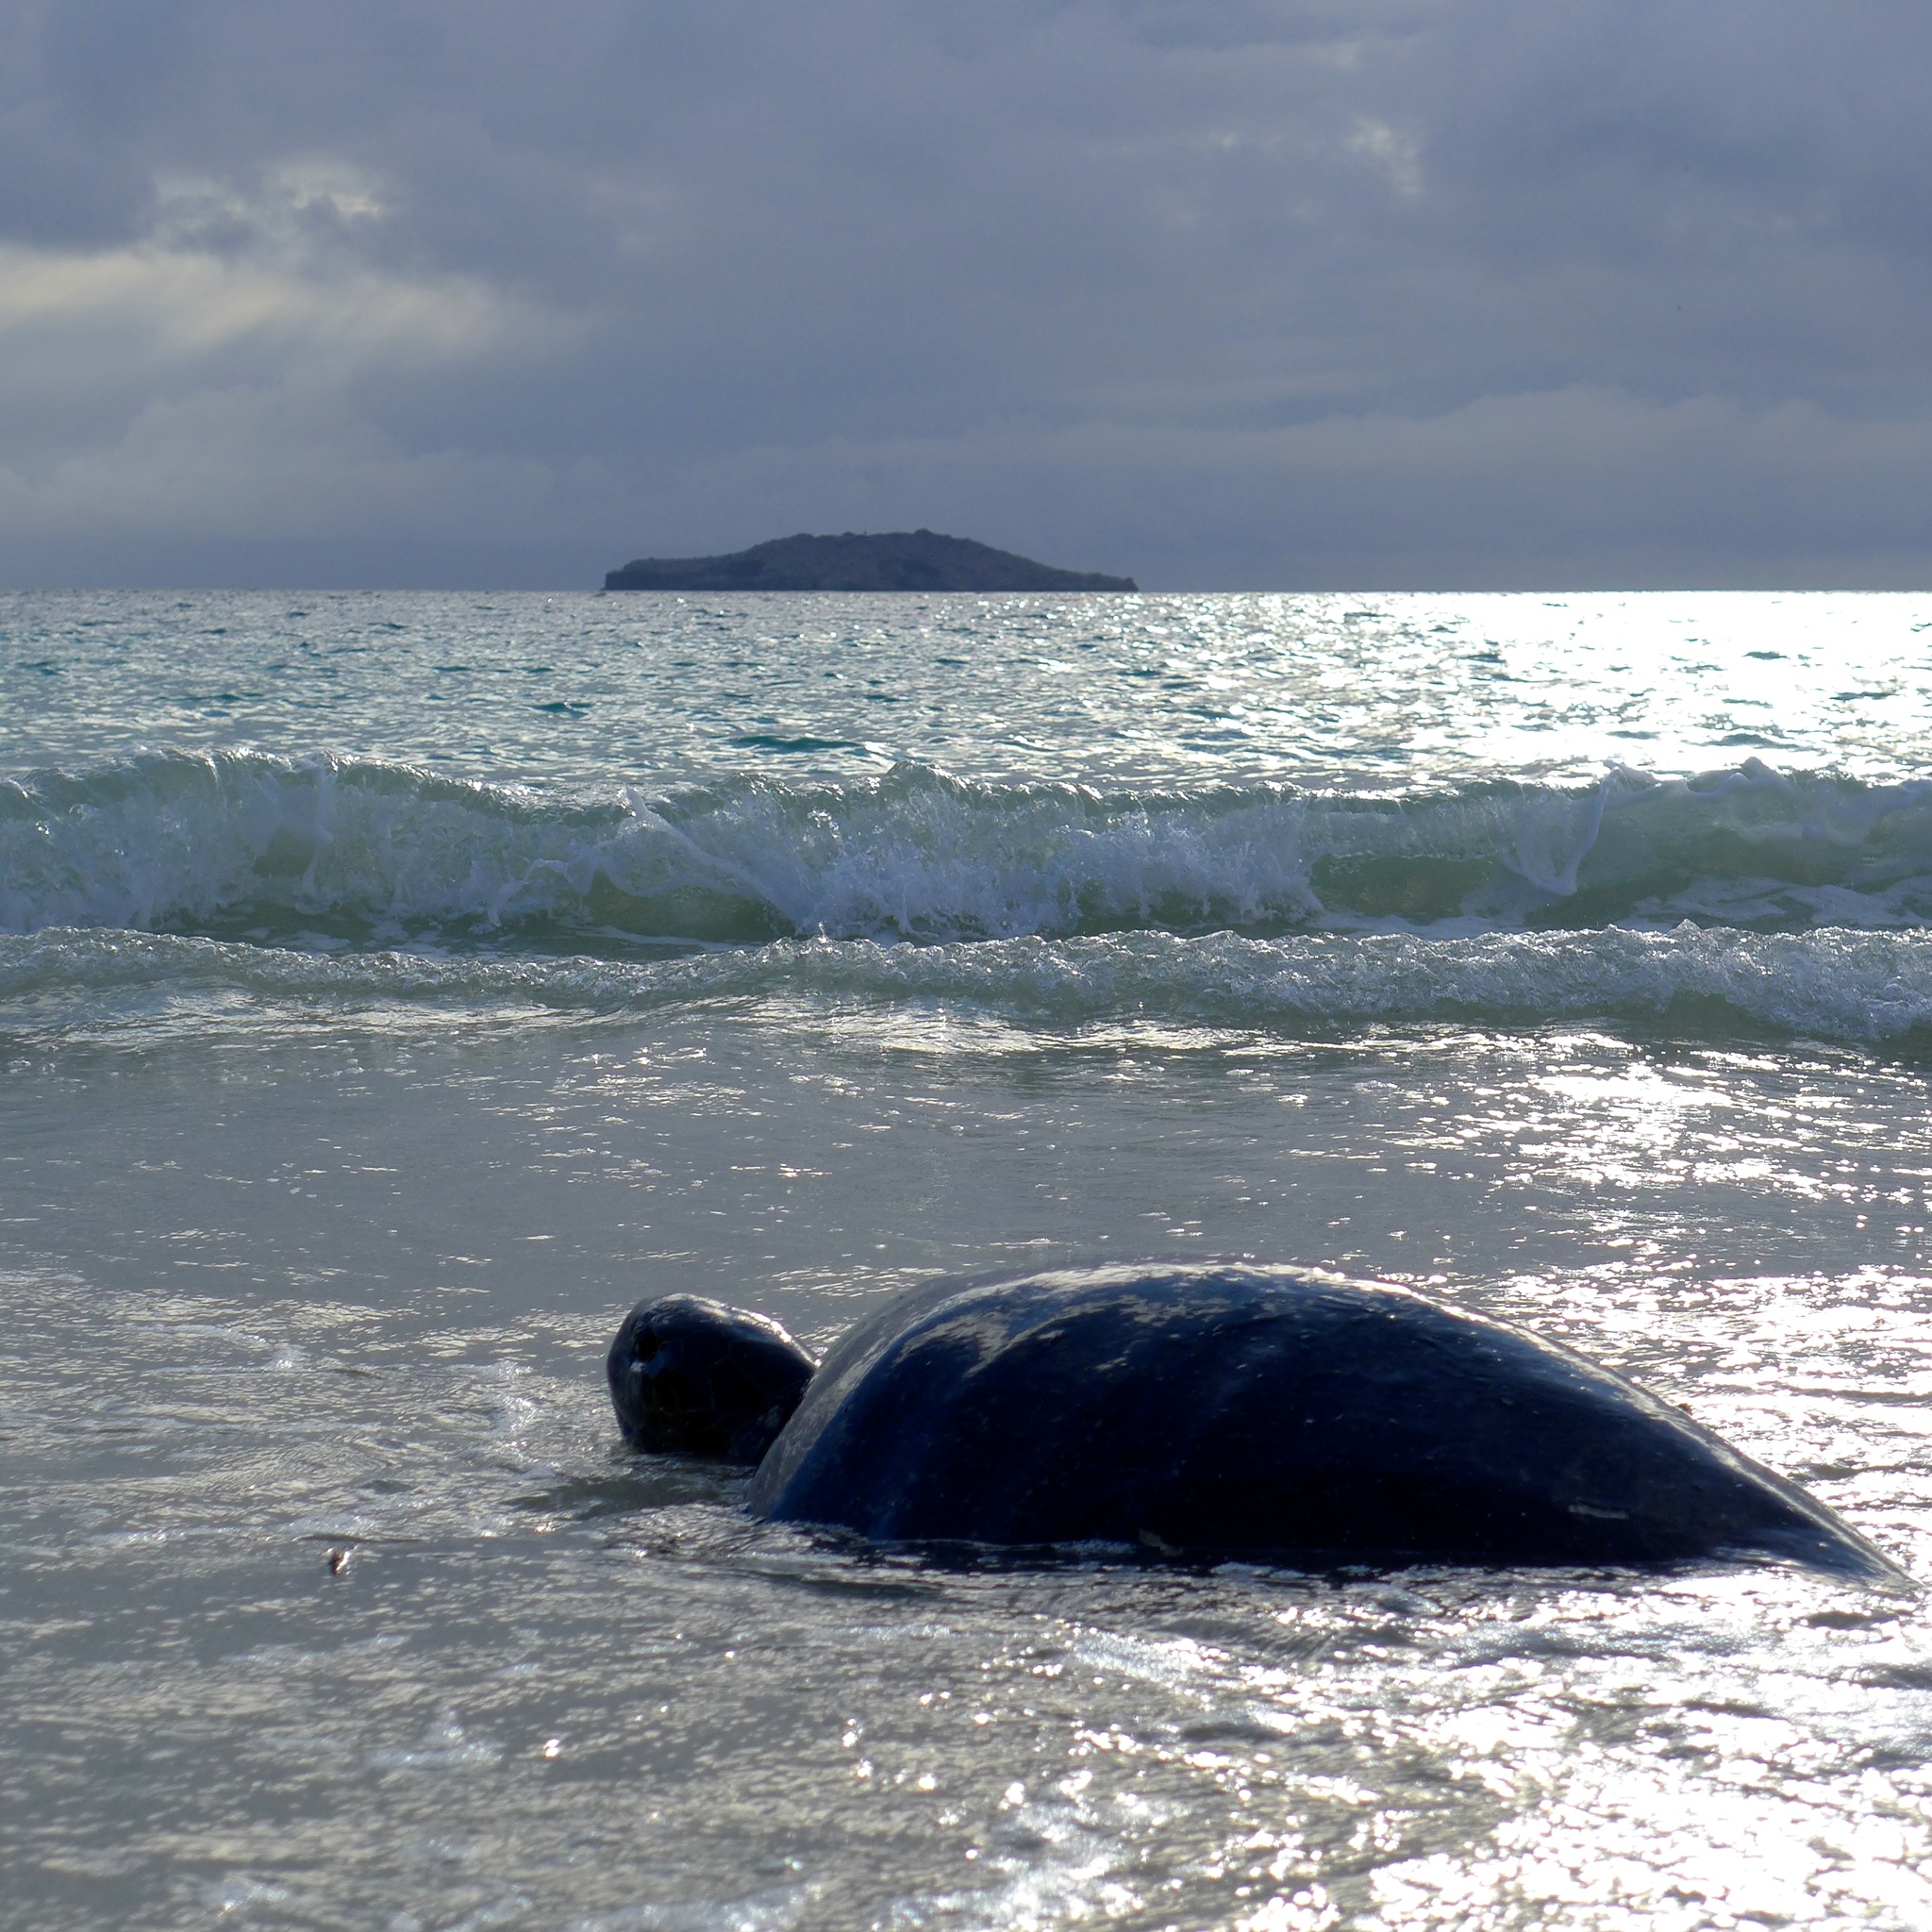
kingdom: Animalia
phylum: Chordata
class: Testudines
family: Cheloniidae
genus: Chelonia
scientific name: Chelonia mydas
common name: Green turtle
